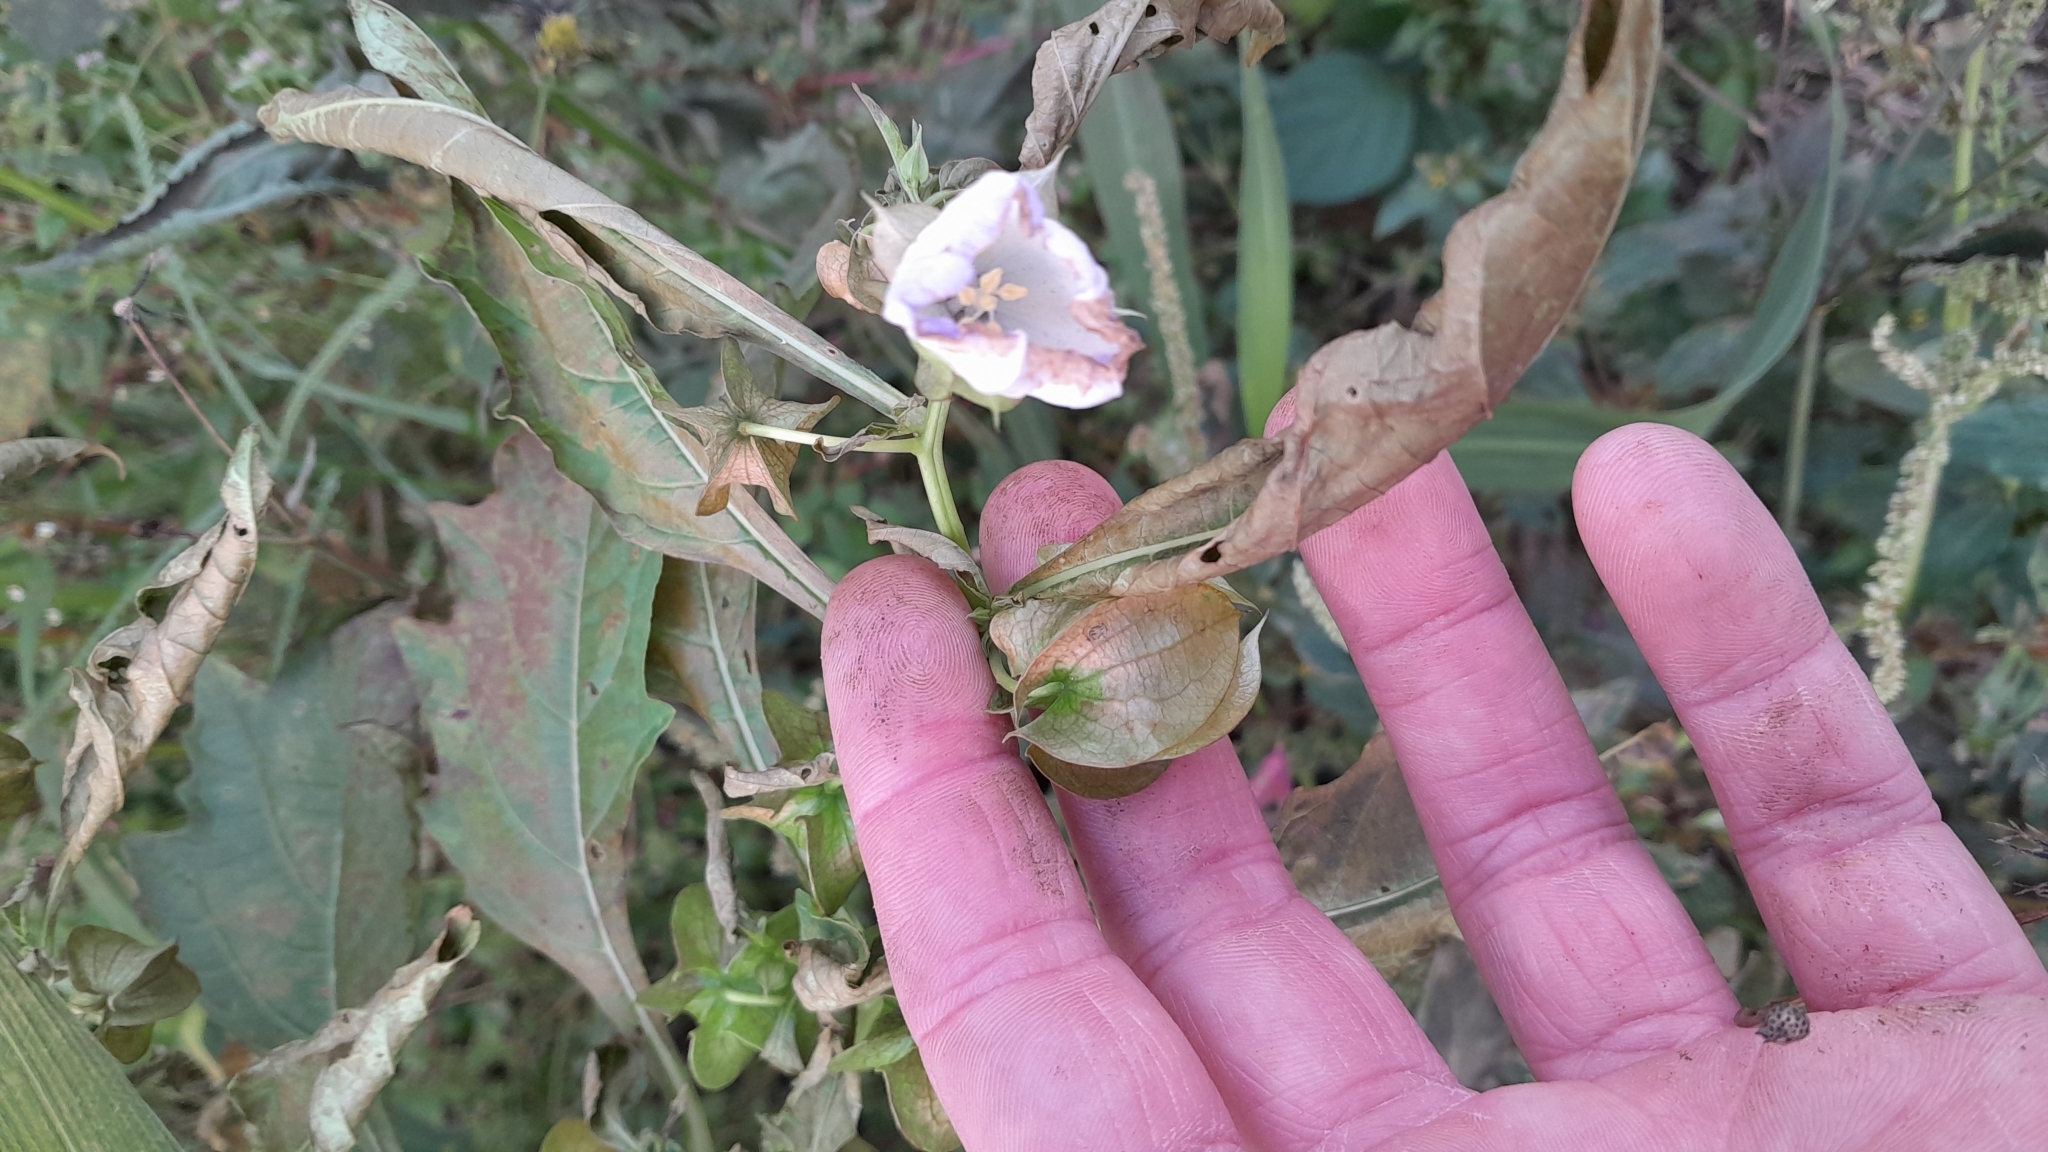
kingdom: Plantae
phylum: Tracheophyta
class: Magnoliopsida
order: Solanales
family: Solanaceae
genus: Nicandra
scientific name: Nicandra physalodes
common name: Apple-of-peru
